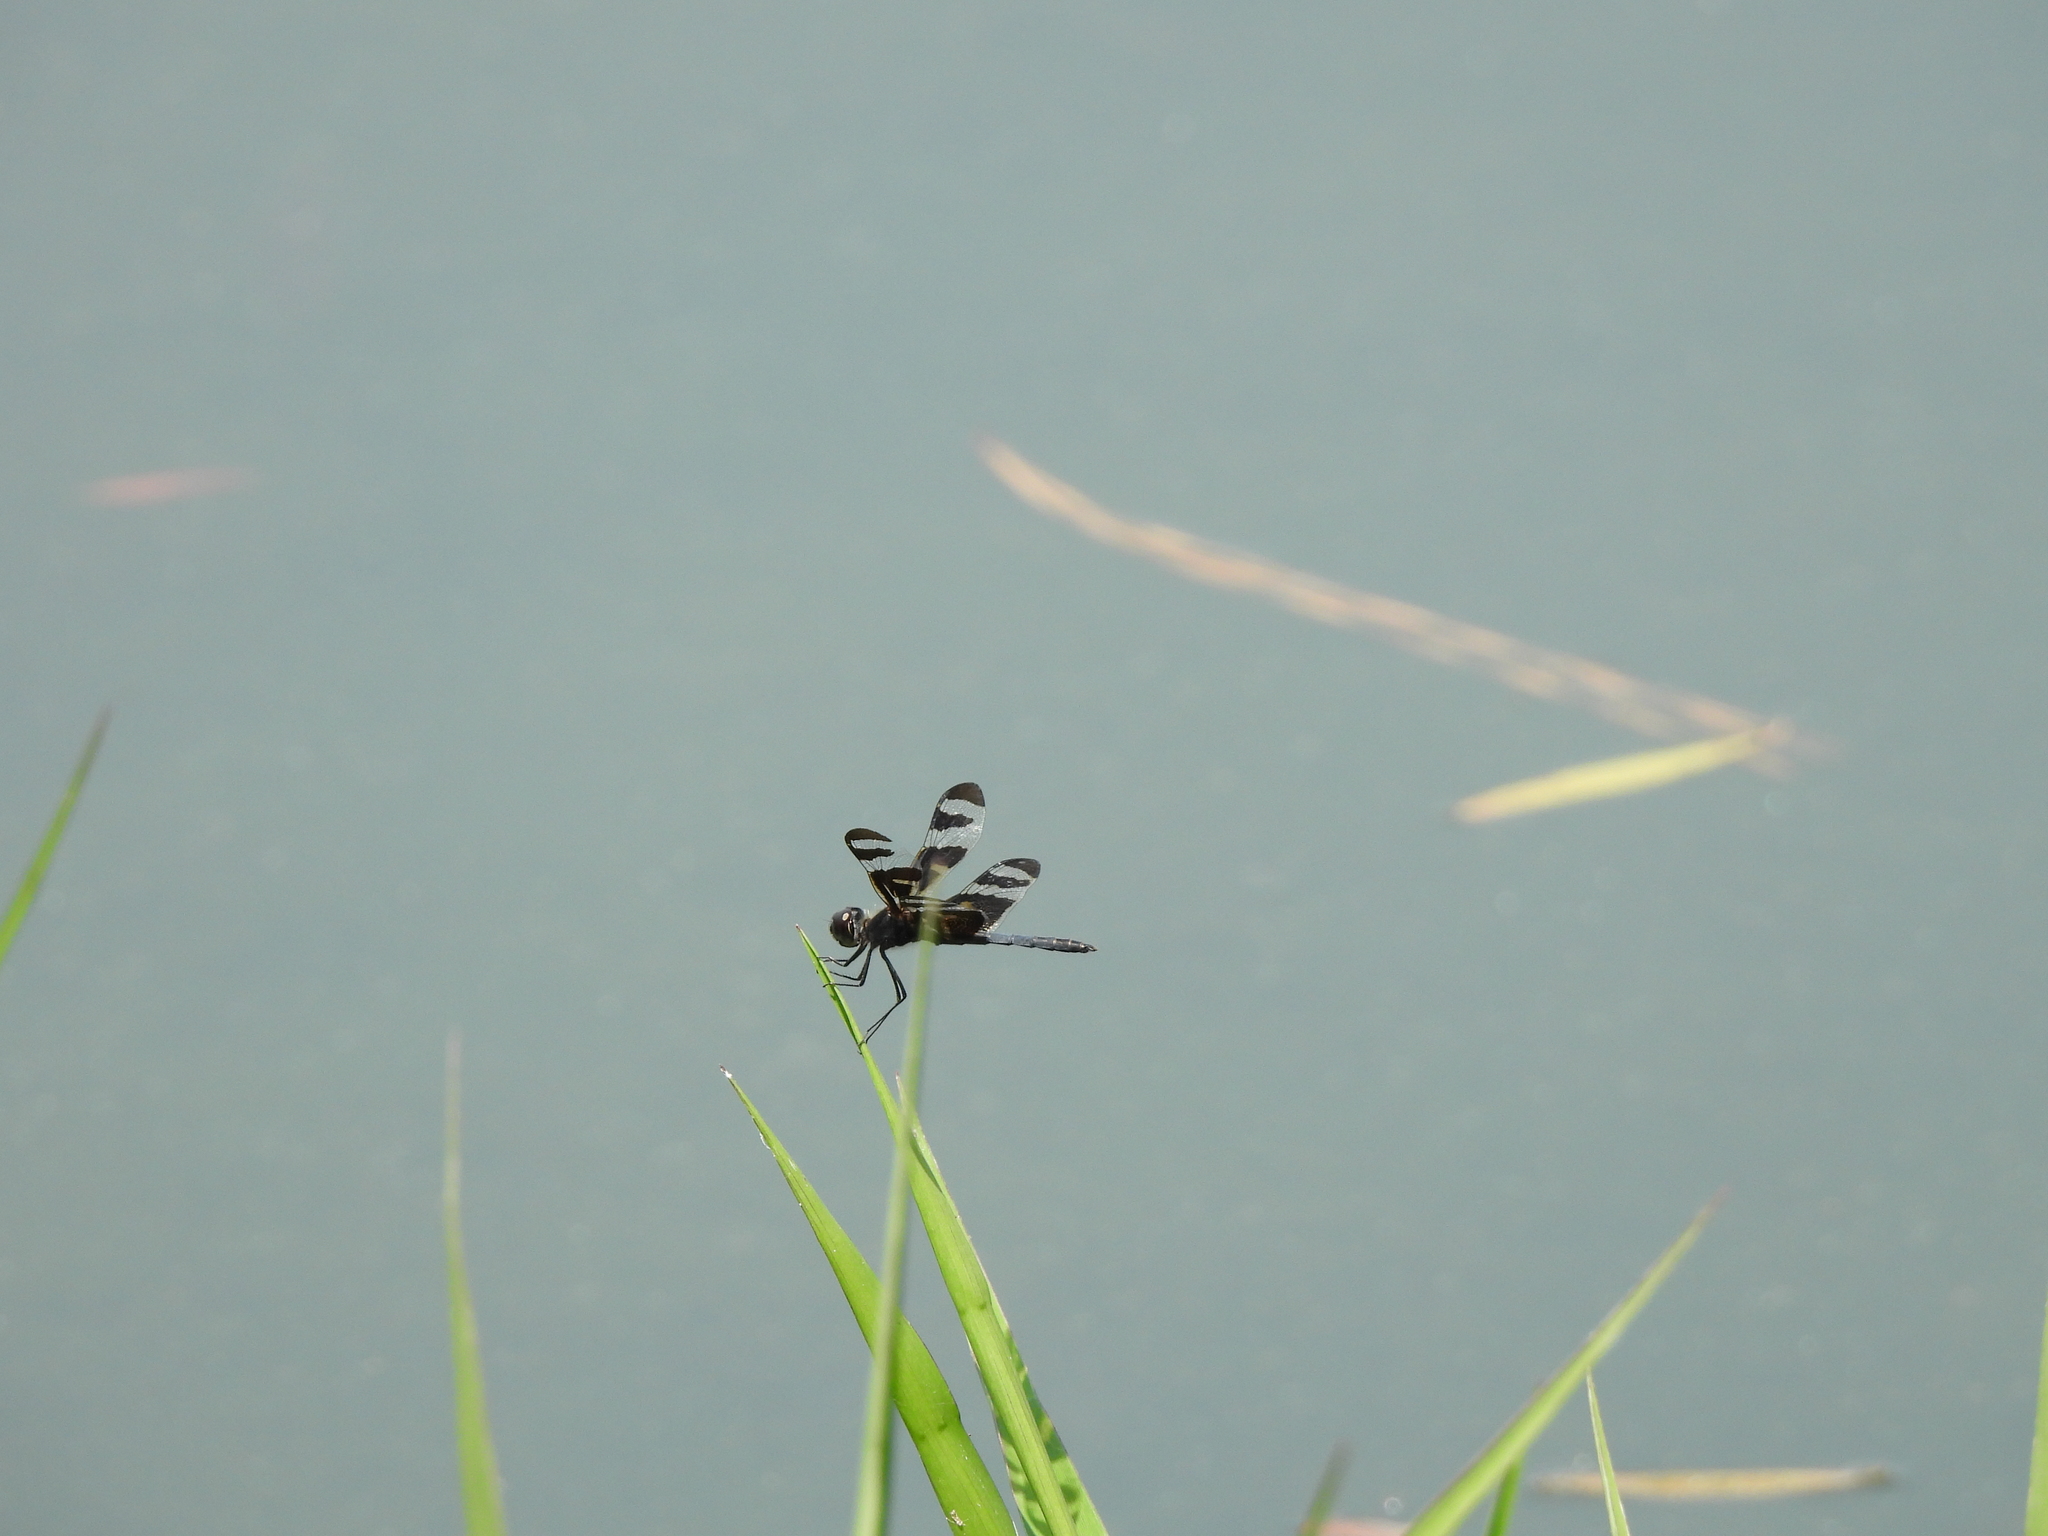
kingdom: Animalia
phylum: Arthropoda
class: Insecta
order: Odonata
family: Libellulidae
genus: Celithemis
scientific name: Celithemis fasciata
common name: Banded pennant
